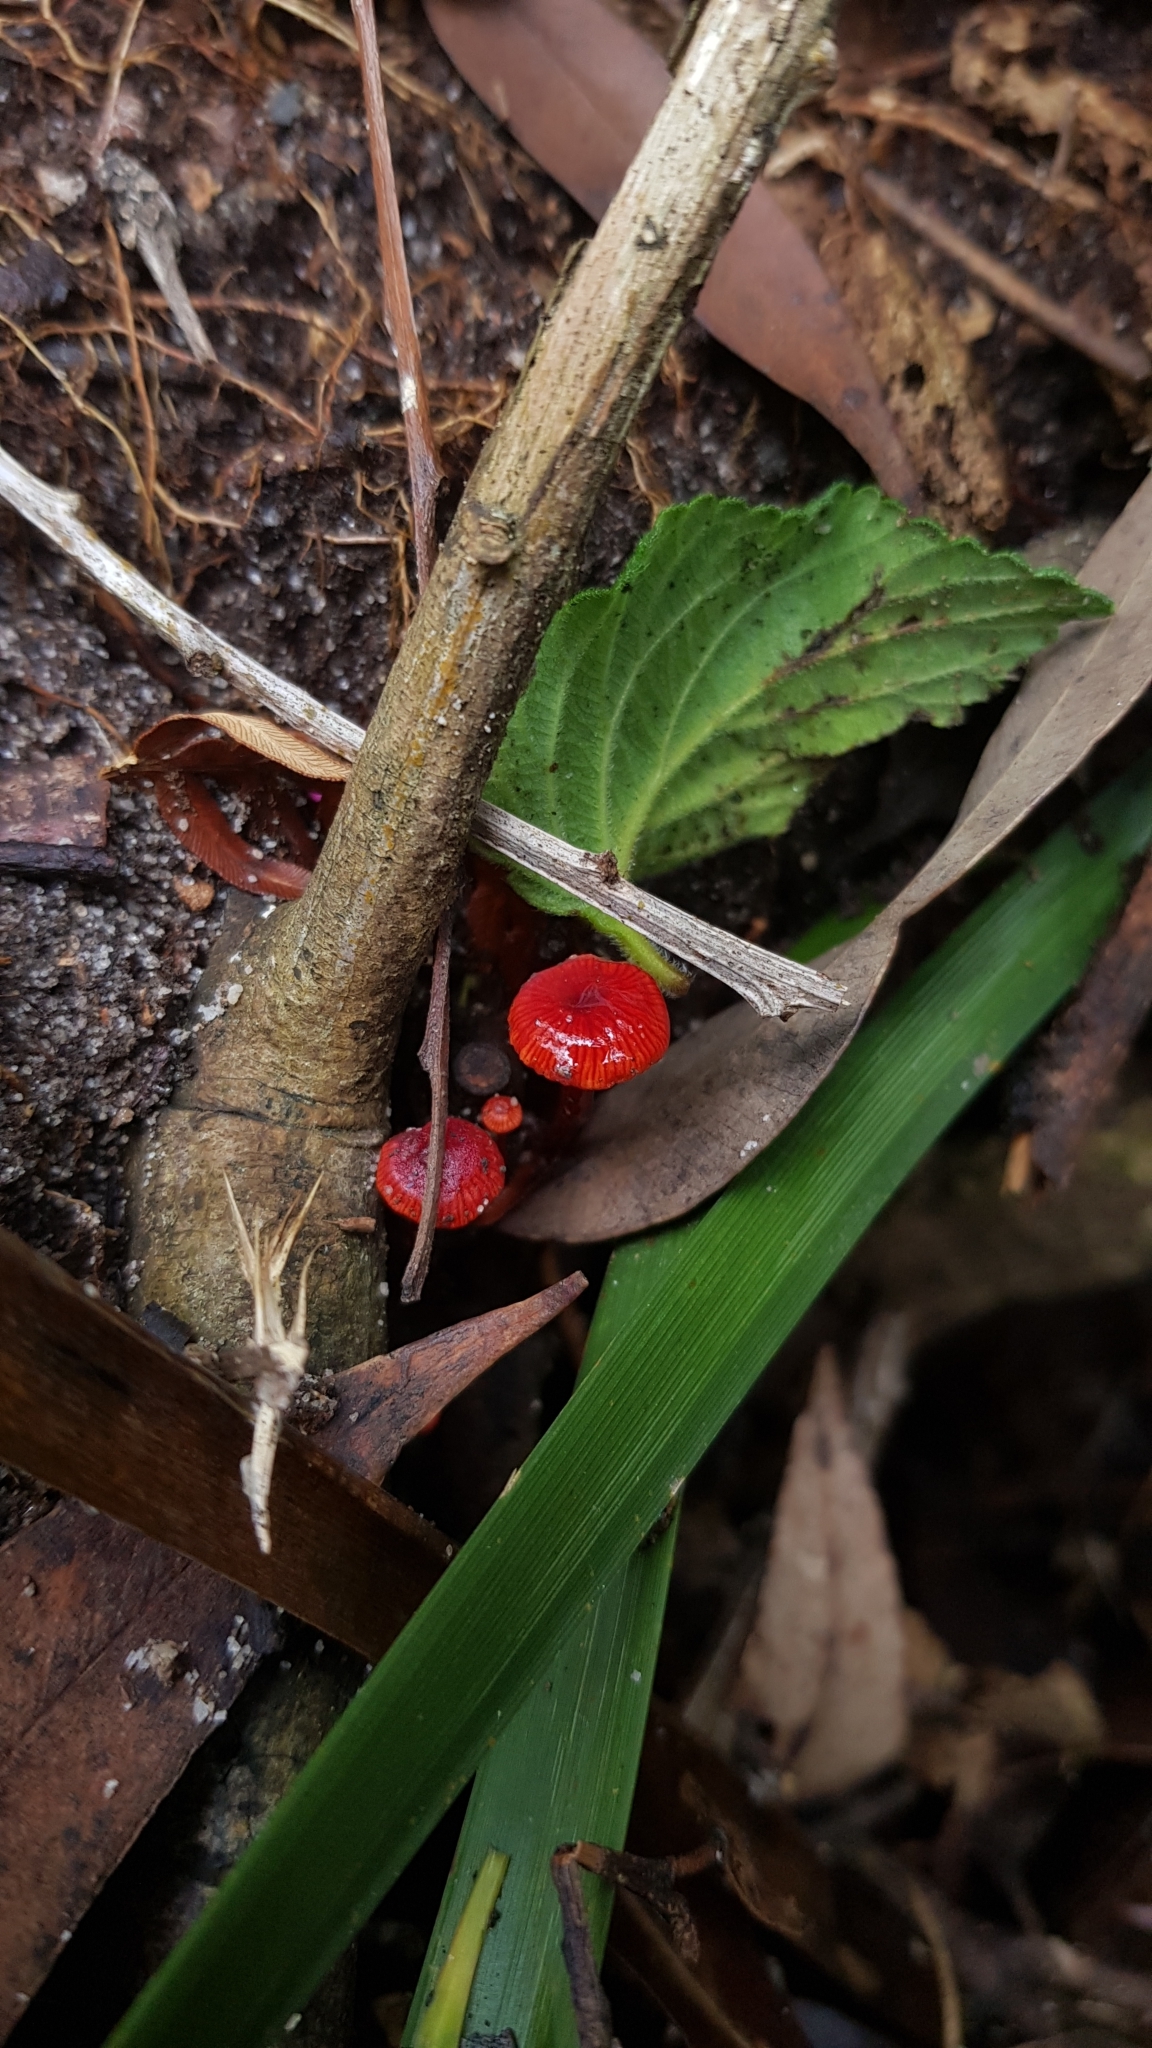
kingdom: Fungi
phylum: Basidiomycota
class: Agaricomycetes
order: Agaricales
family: Mycenaceae
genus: Cruentomycena
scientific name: Cruentomycena viscidocruenta
